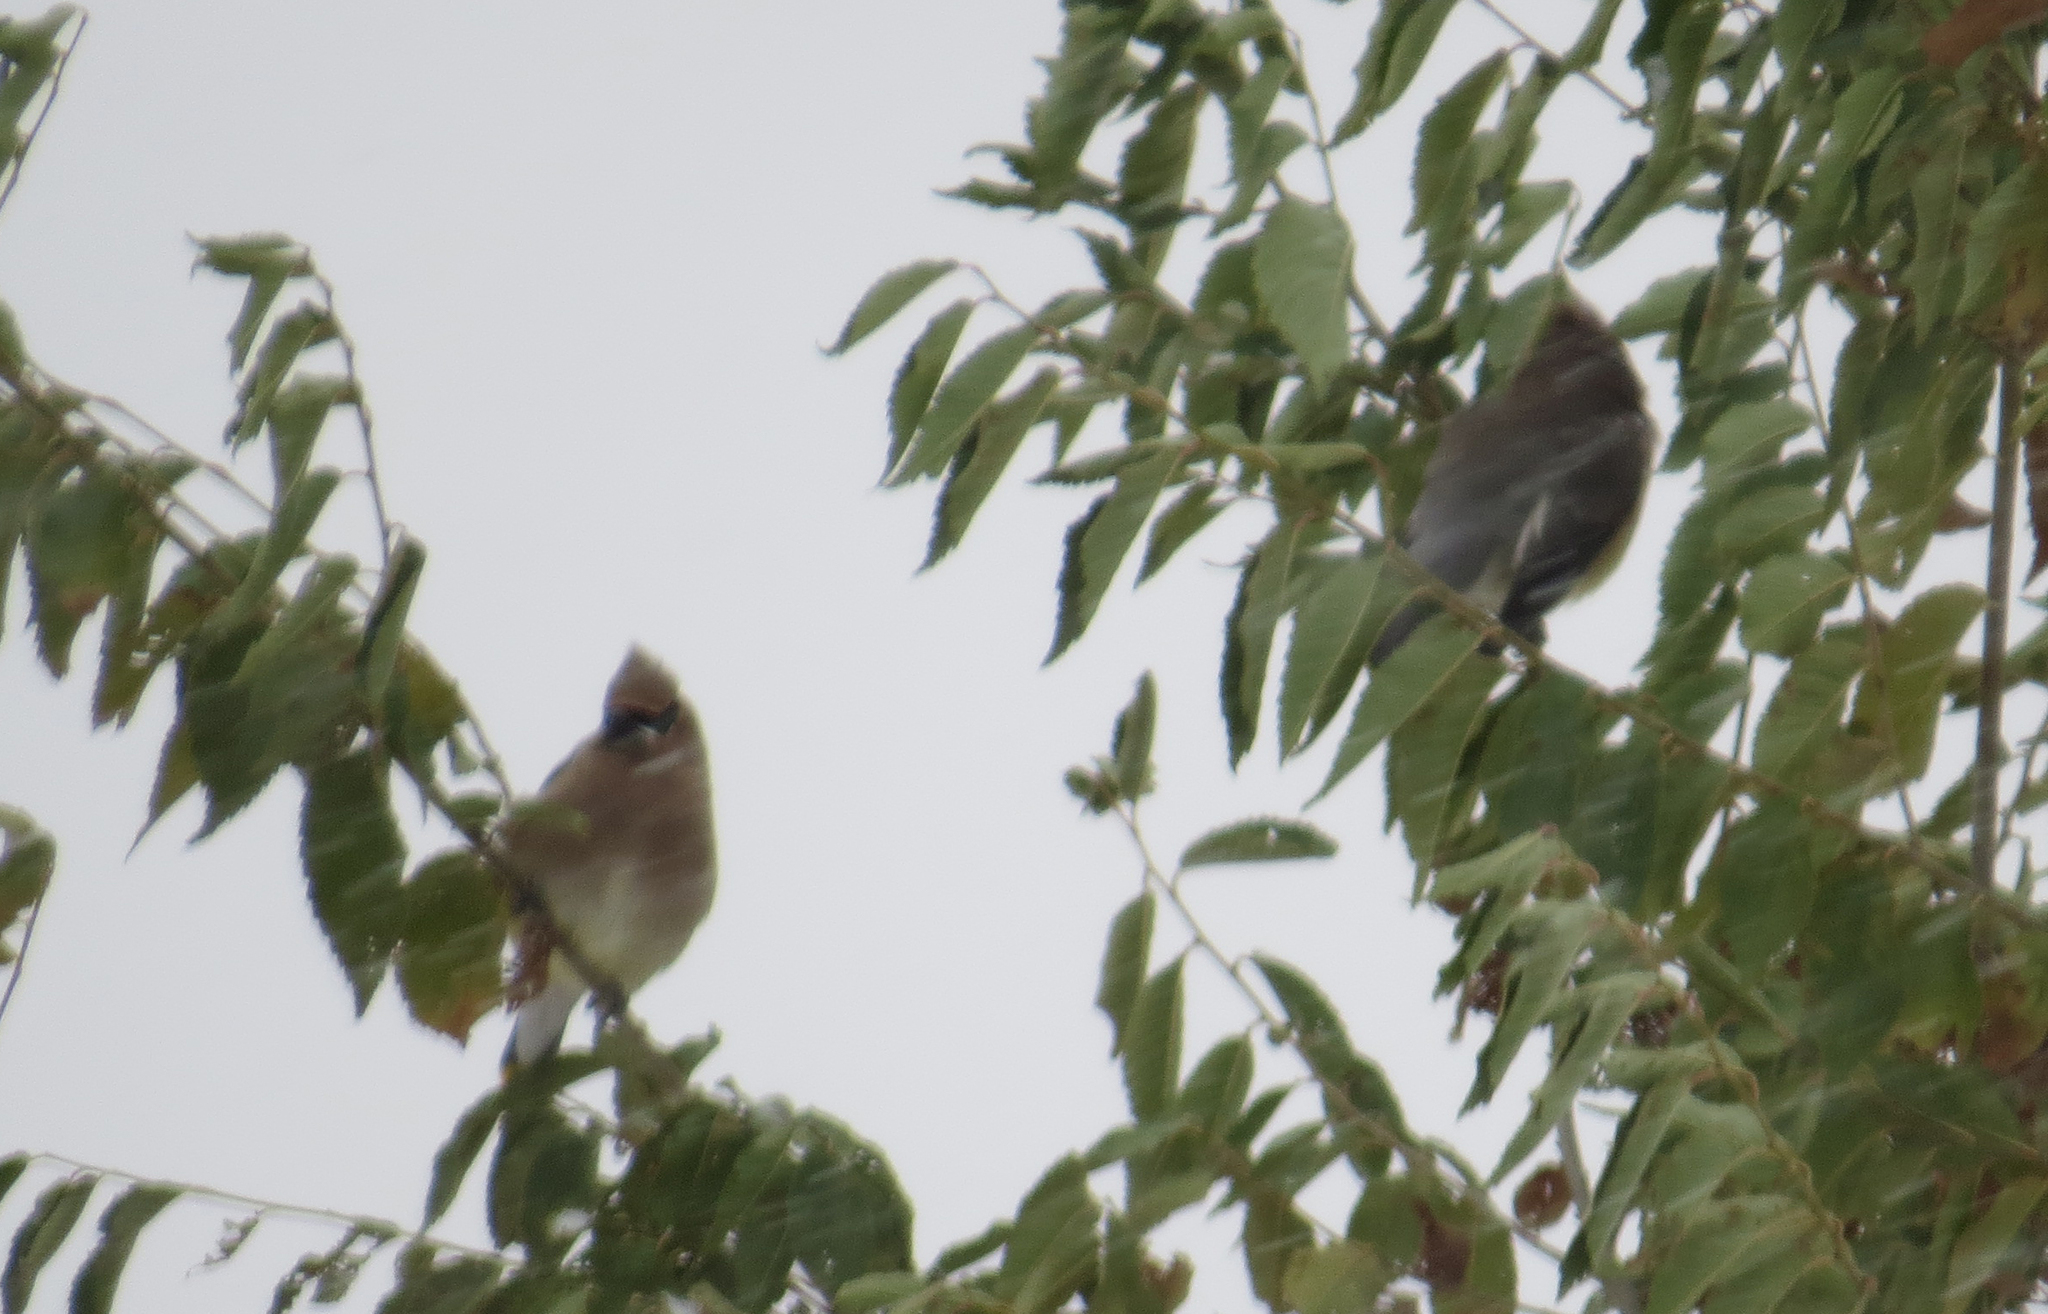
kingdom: Animalia
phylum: Chordata
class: Aves
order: Passeriformes
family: Bombycillidae
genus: Bombycilla
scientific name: Bombycilla cedrorum
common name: Cedar waxwing
